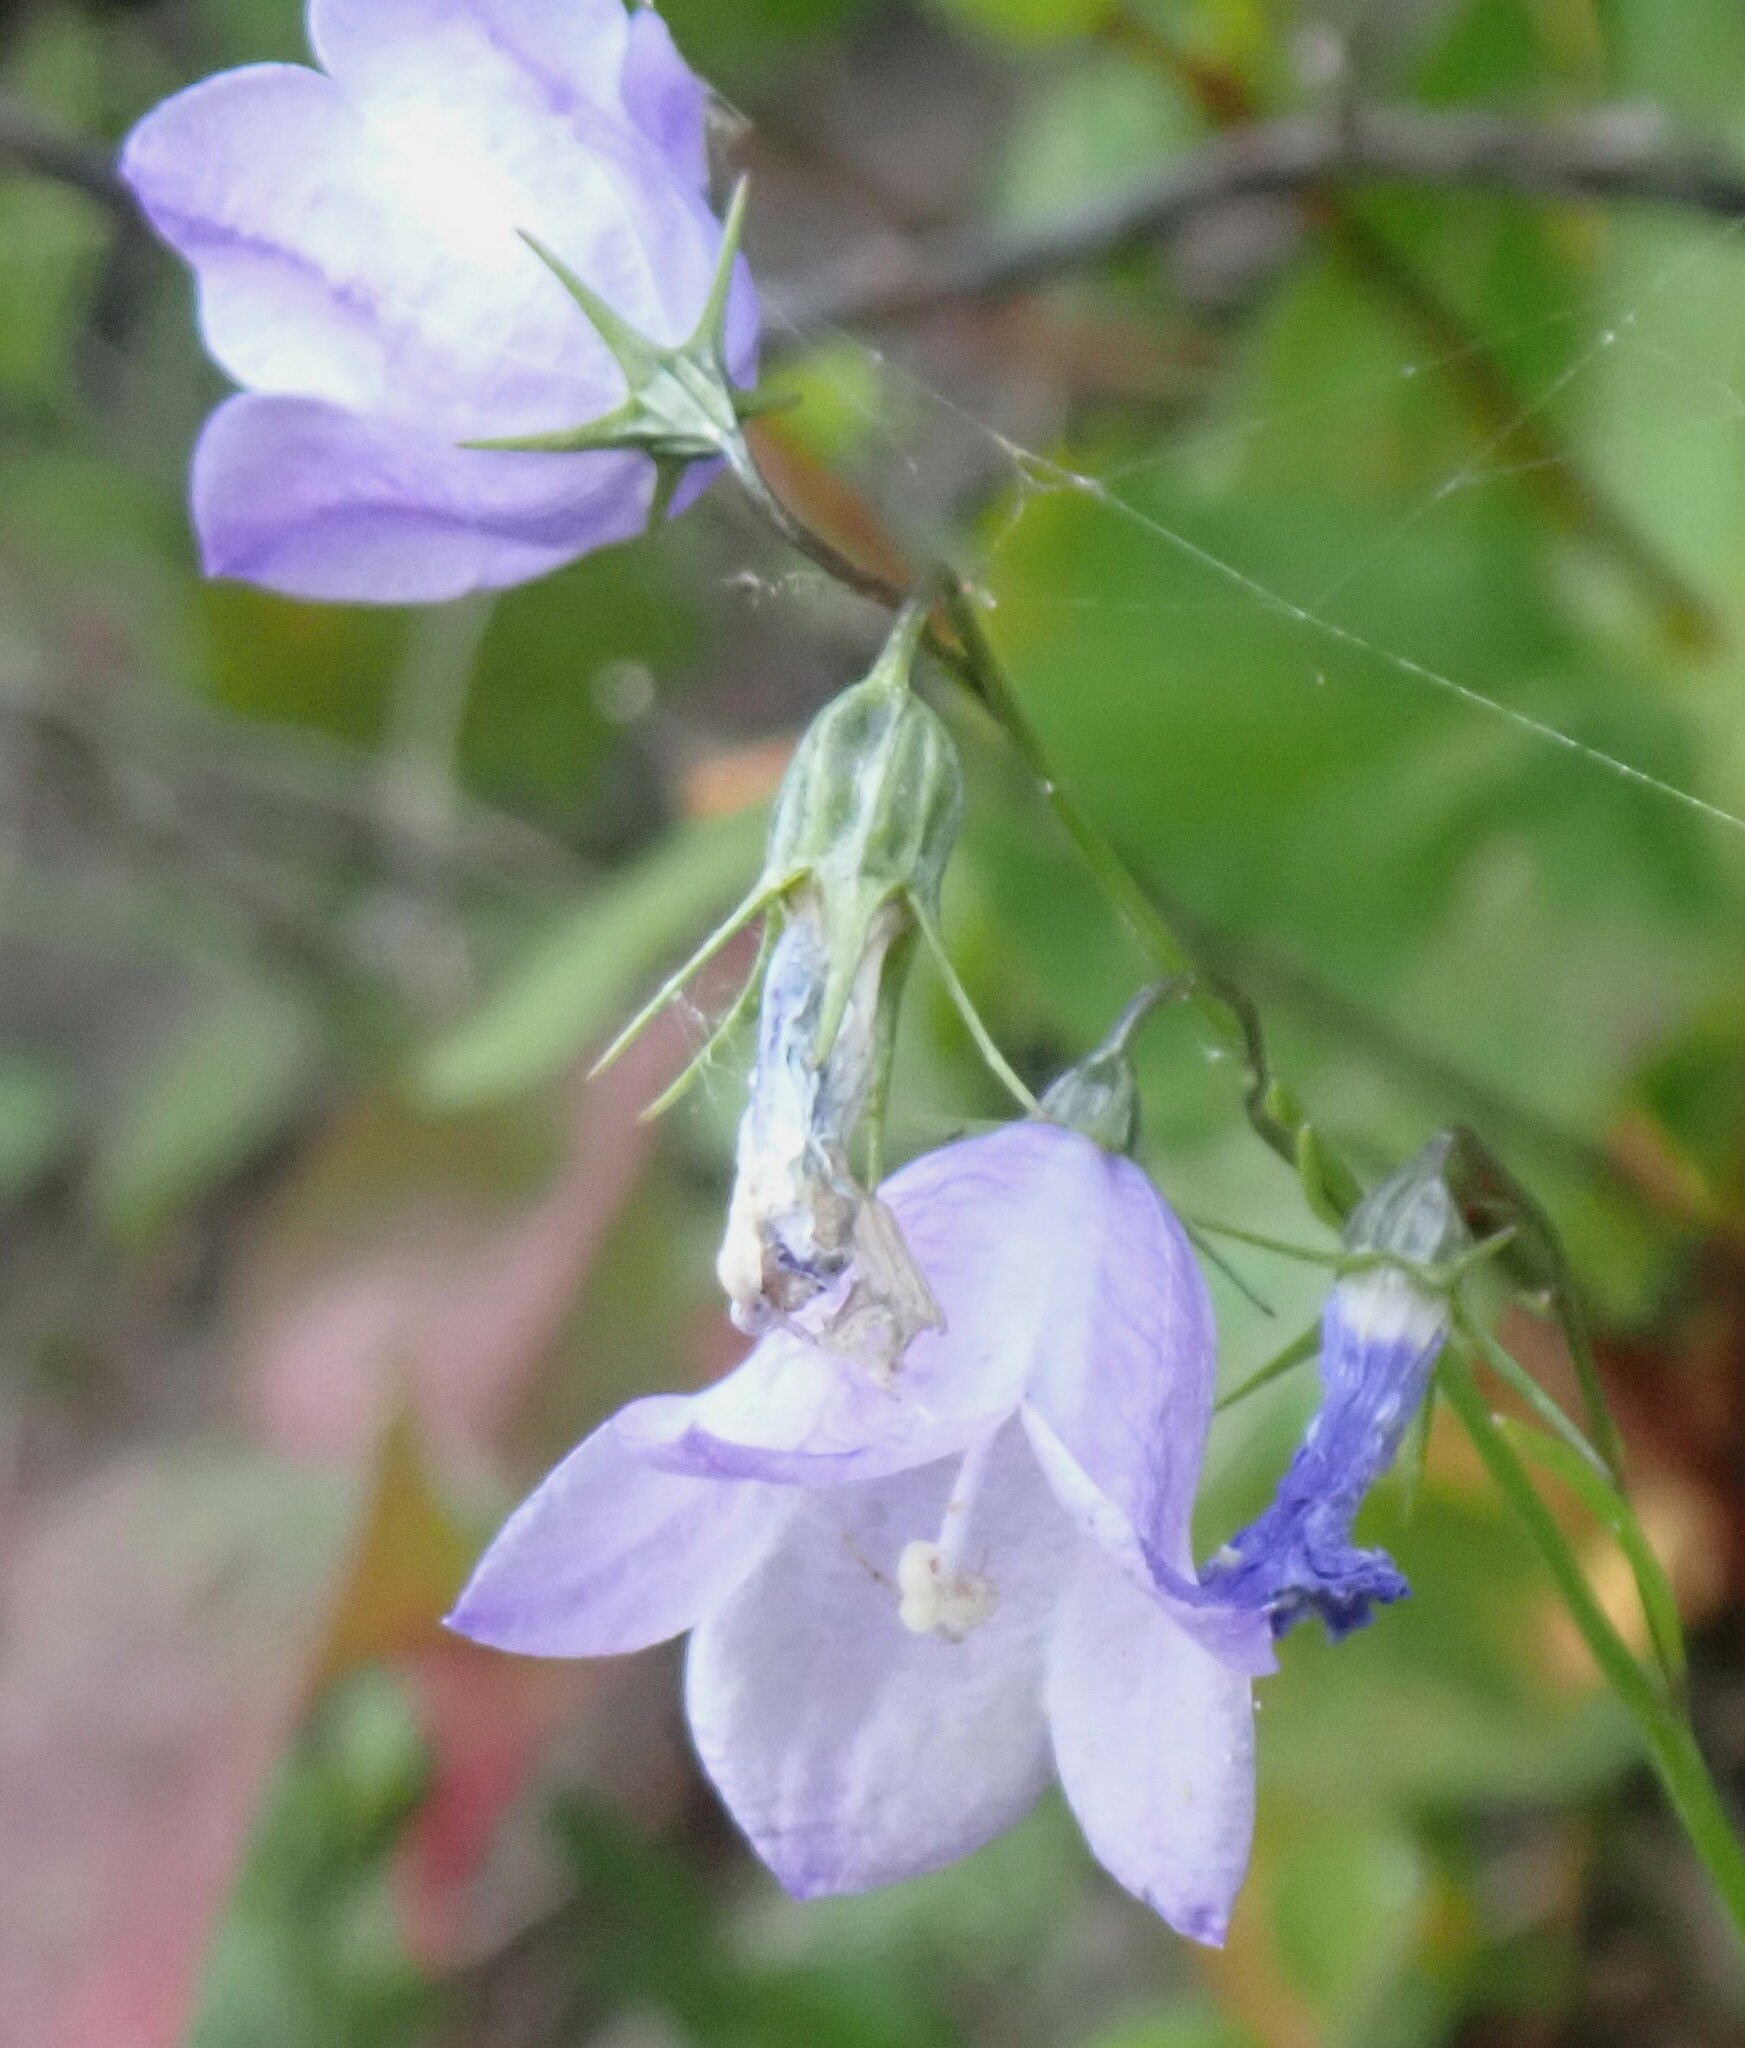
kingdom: Plantae
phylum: Tracheophyta
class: Magnoliopsida
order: Asterales
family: Campanulaceae
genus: Campanula
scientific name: Campanula alaskana
